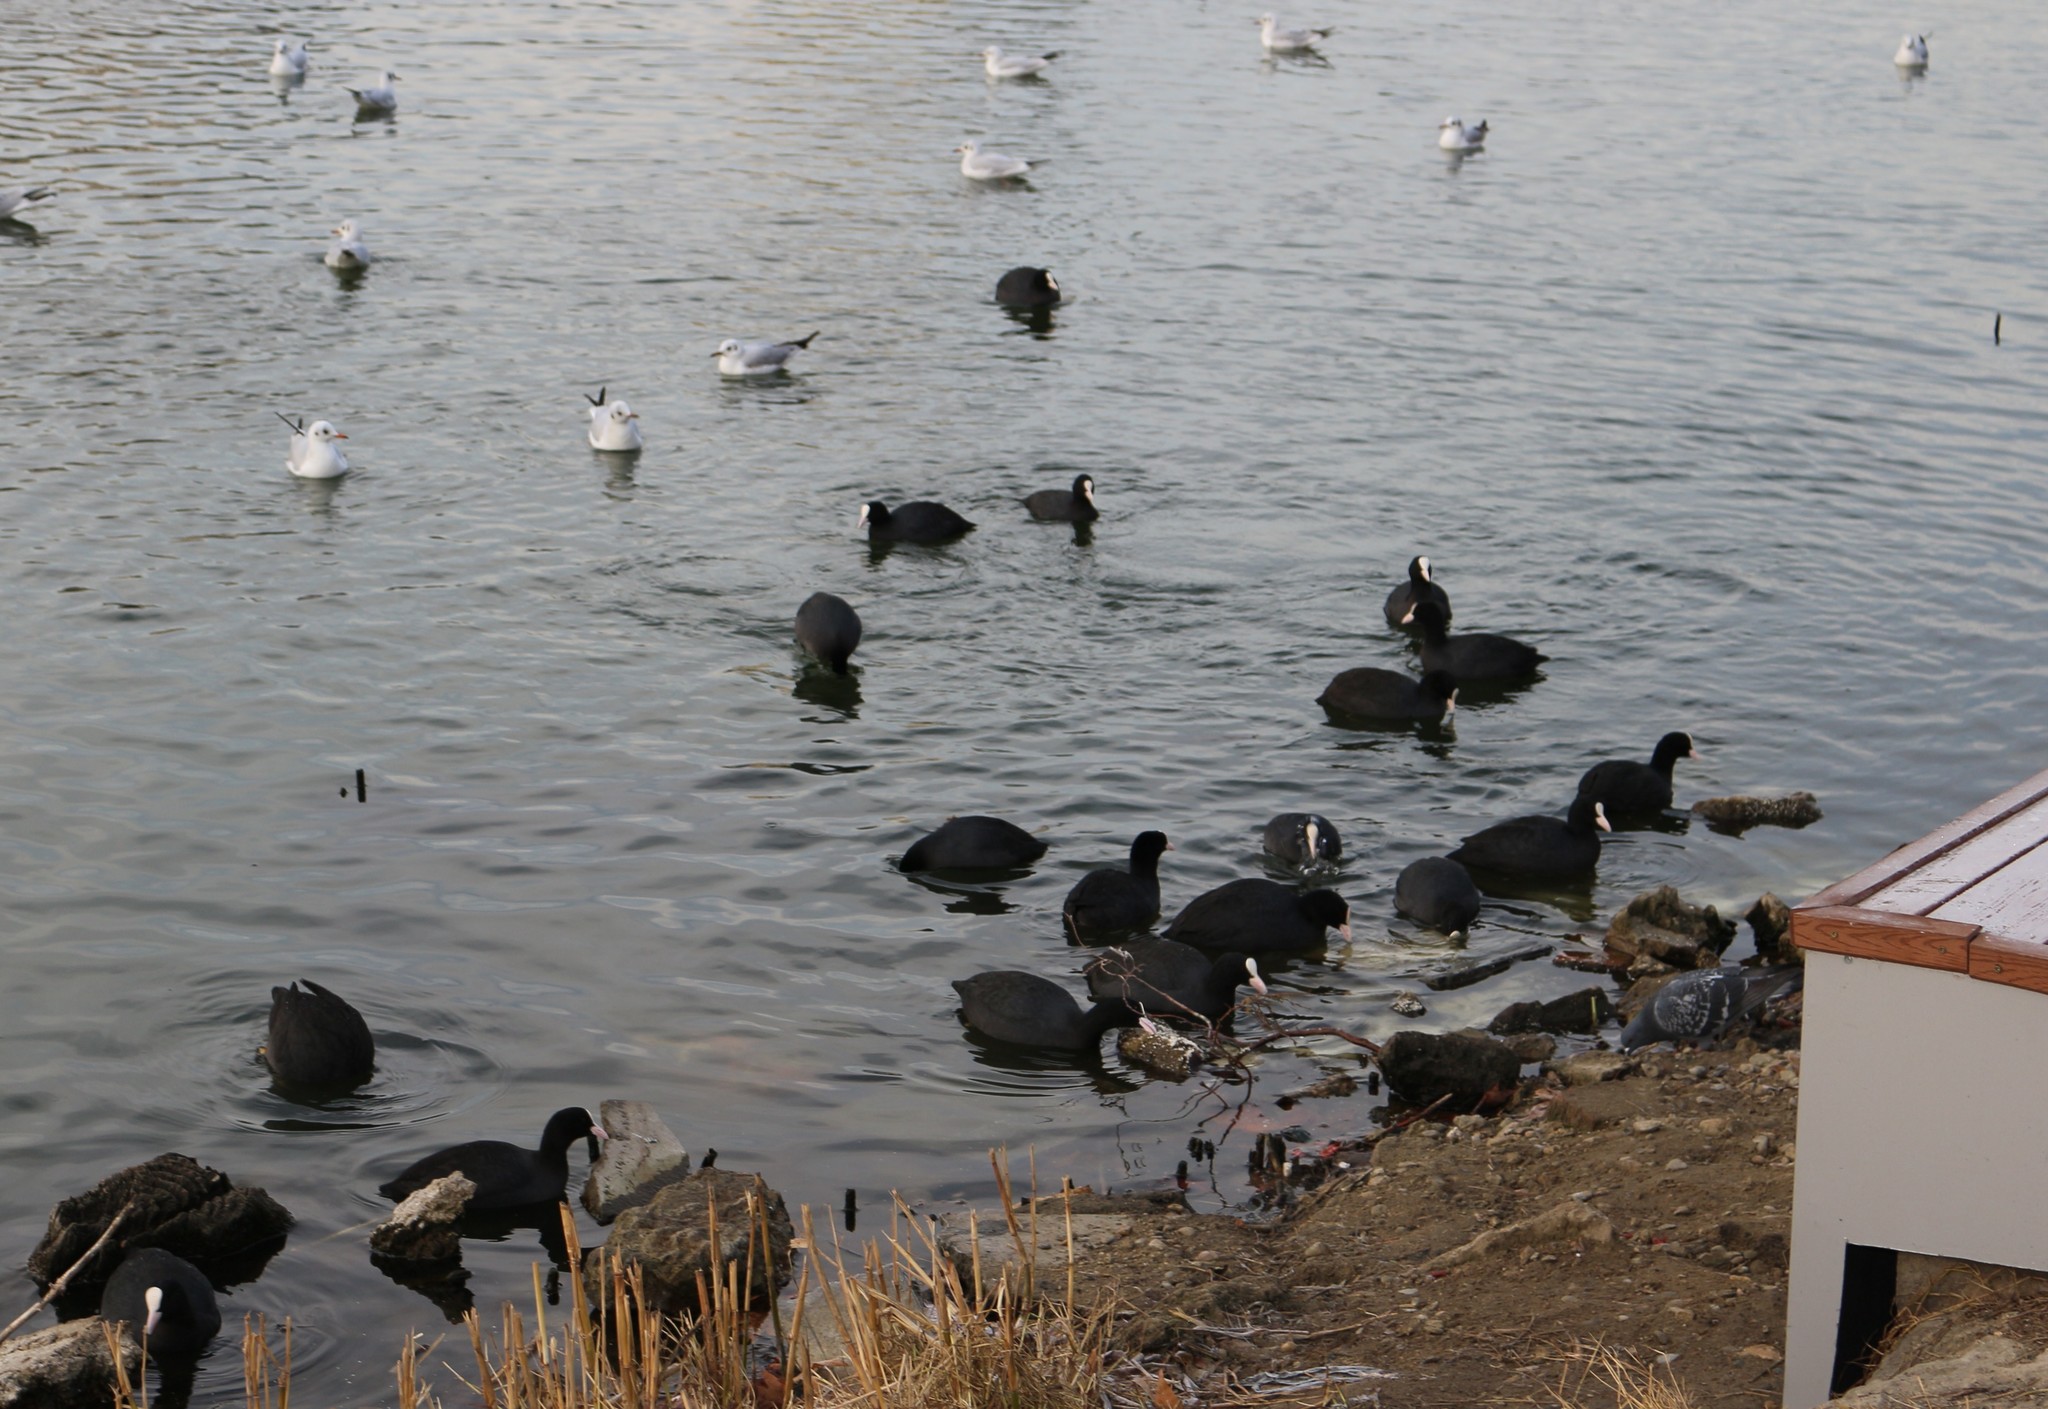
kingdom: Animalia
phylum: Chordata
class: Aves
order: Gruiformes
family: Rallidae
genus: Fulica
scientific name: Fulica atra
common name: Eurasian coot
